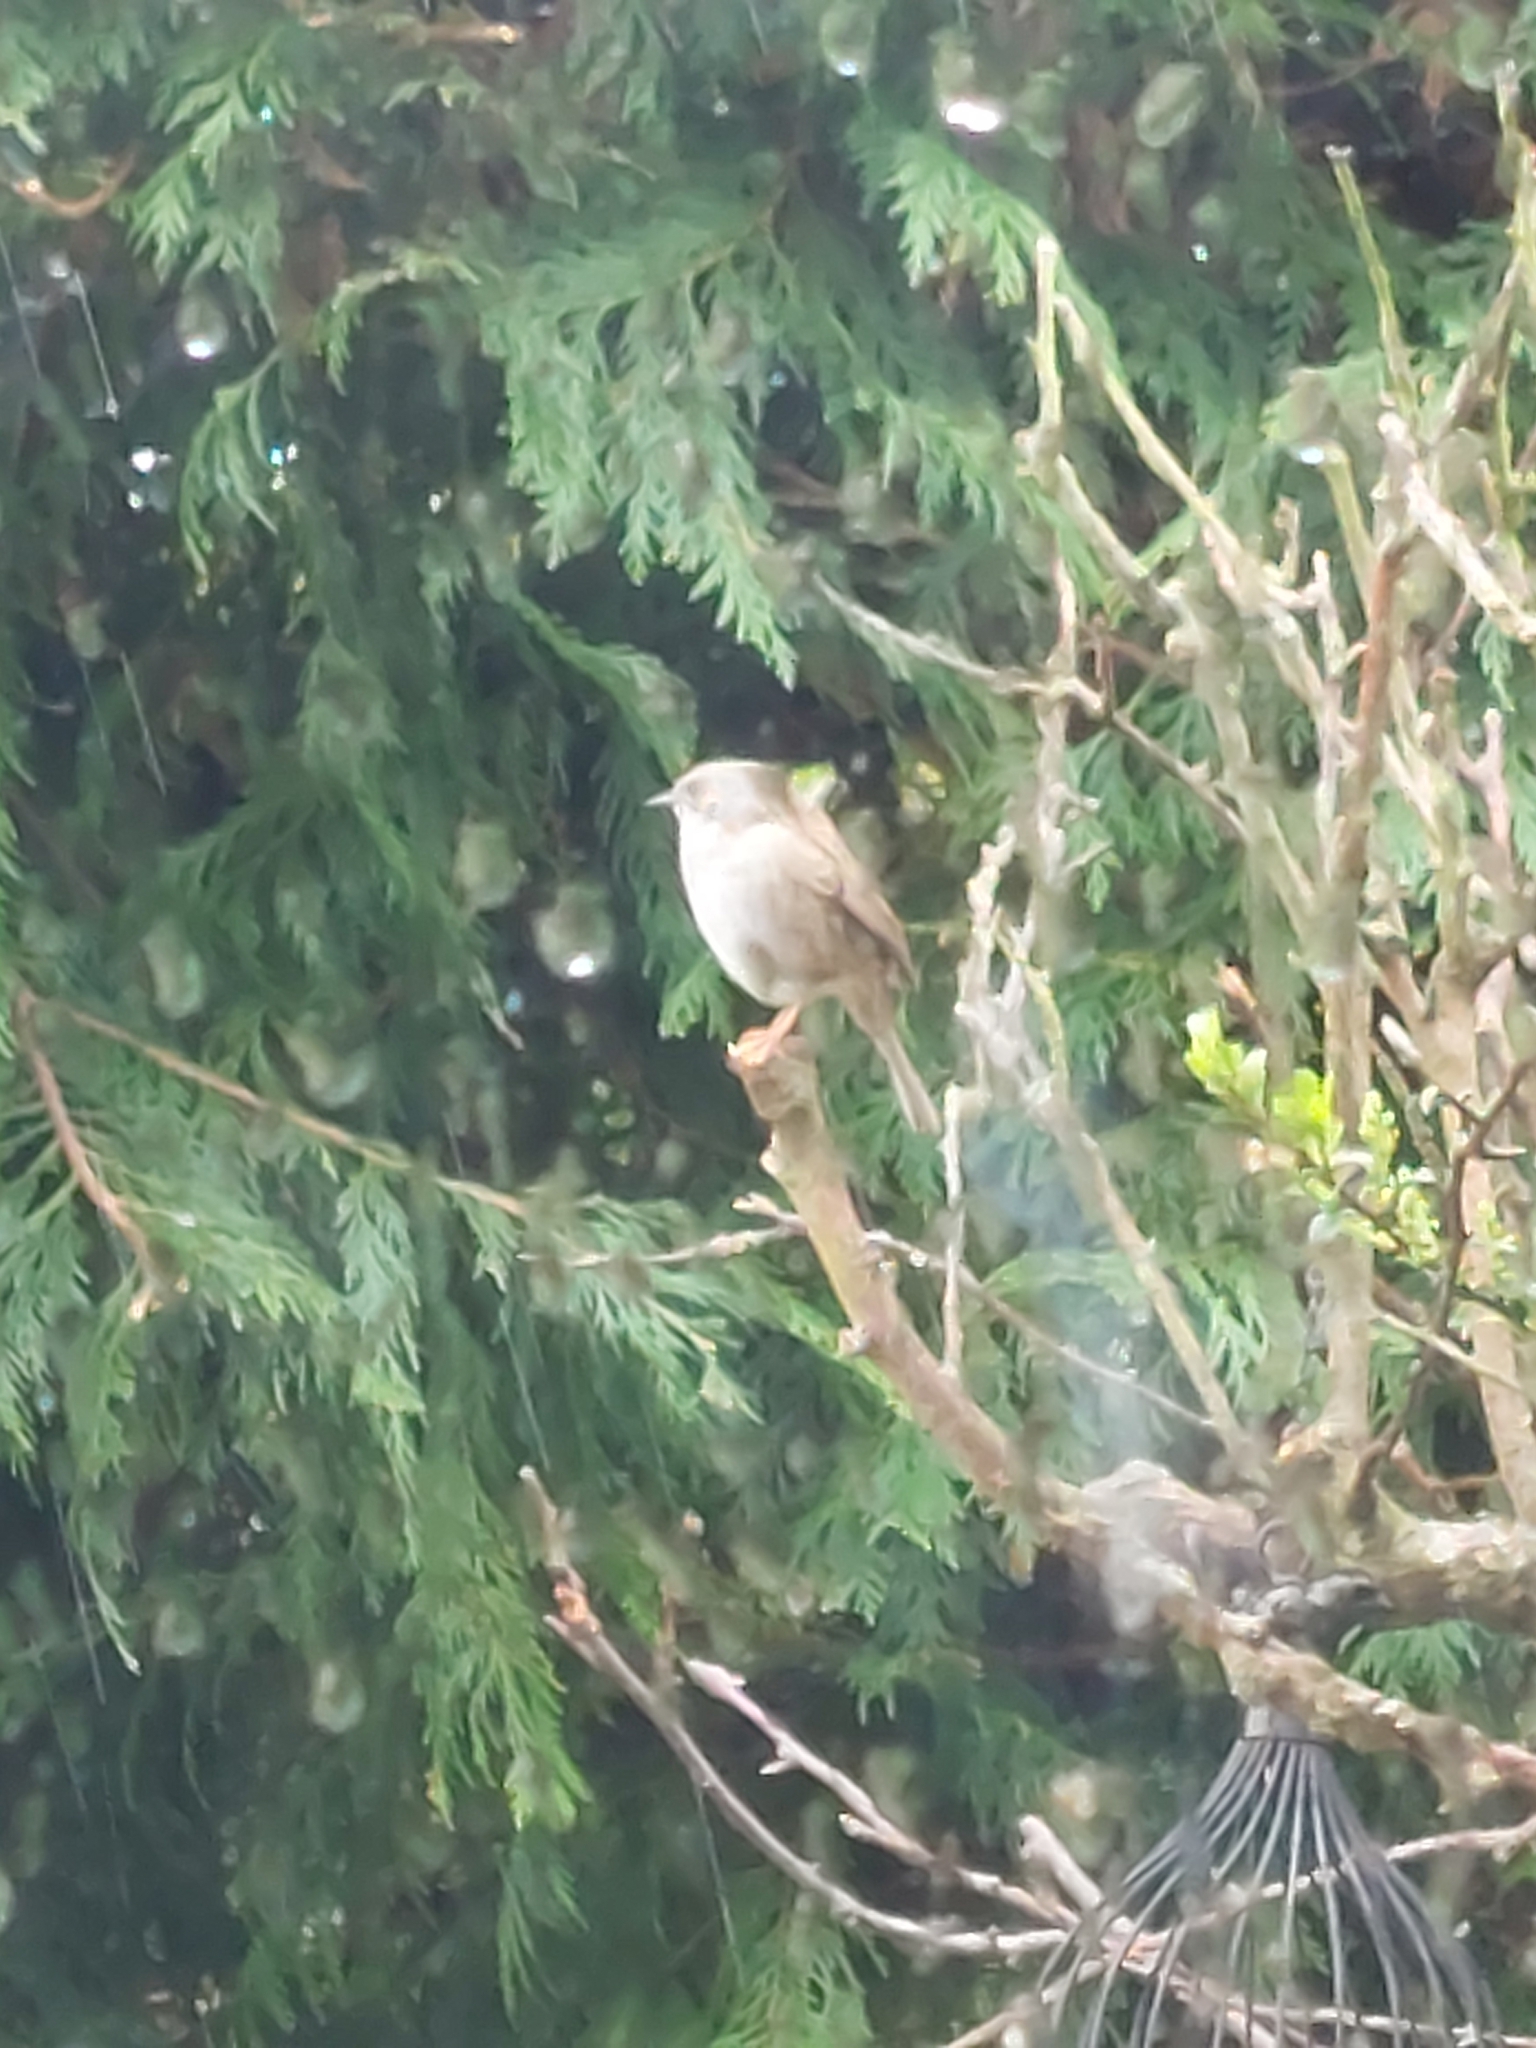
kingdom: Animalia
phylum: Chordata
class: Aves
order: Passeriformes
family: Prunellidae
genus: Prunella
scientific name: Prunella modularis
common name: Dunnock
